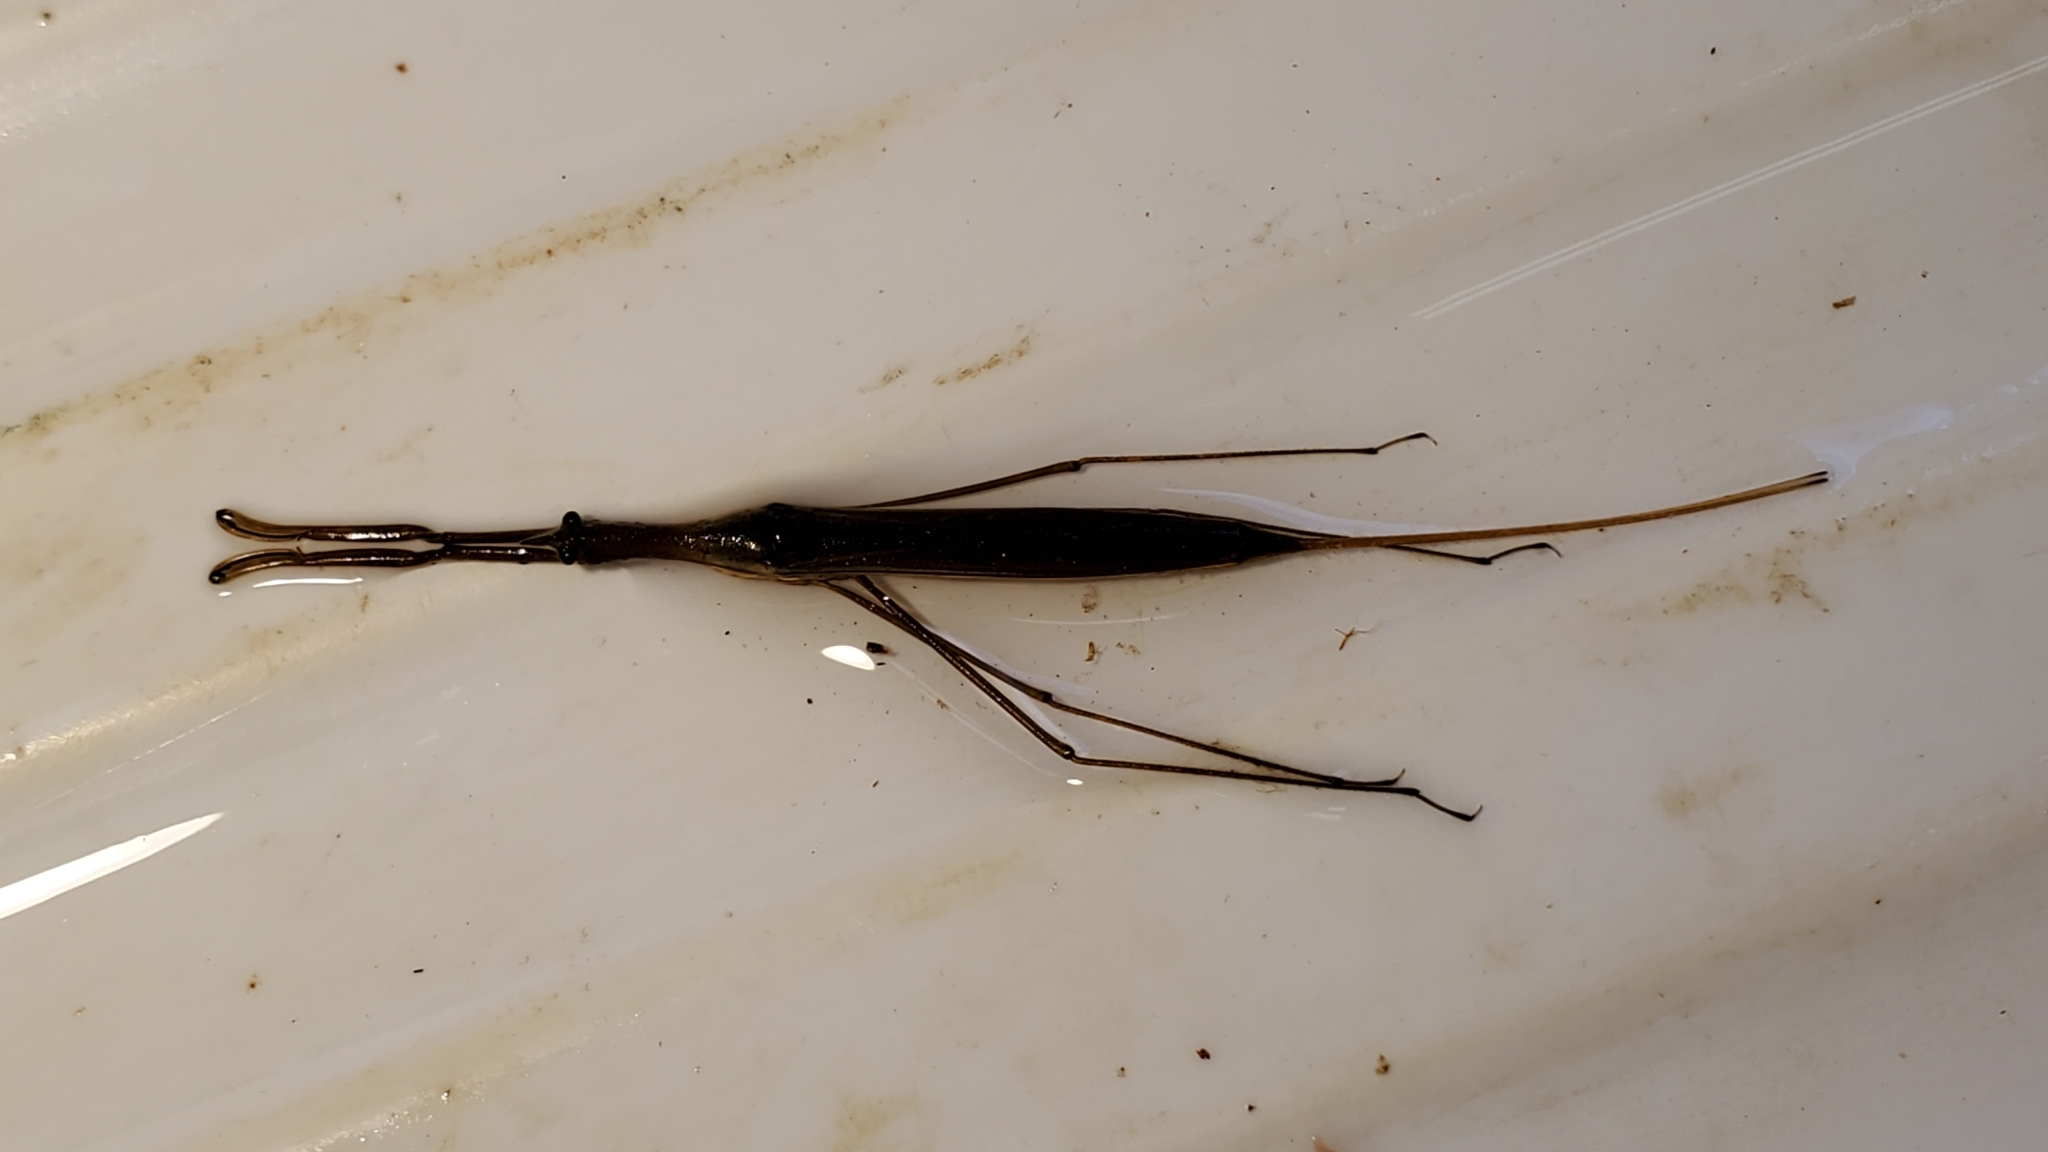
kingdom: Animalia
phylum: Arthropoda
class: Insecta
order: Hemiptera
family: Nepidae
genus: Ranatra
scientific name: Ranatra fusca
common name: Brown waterscorpion
